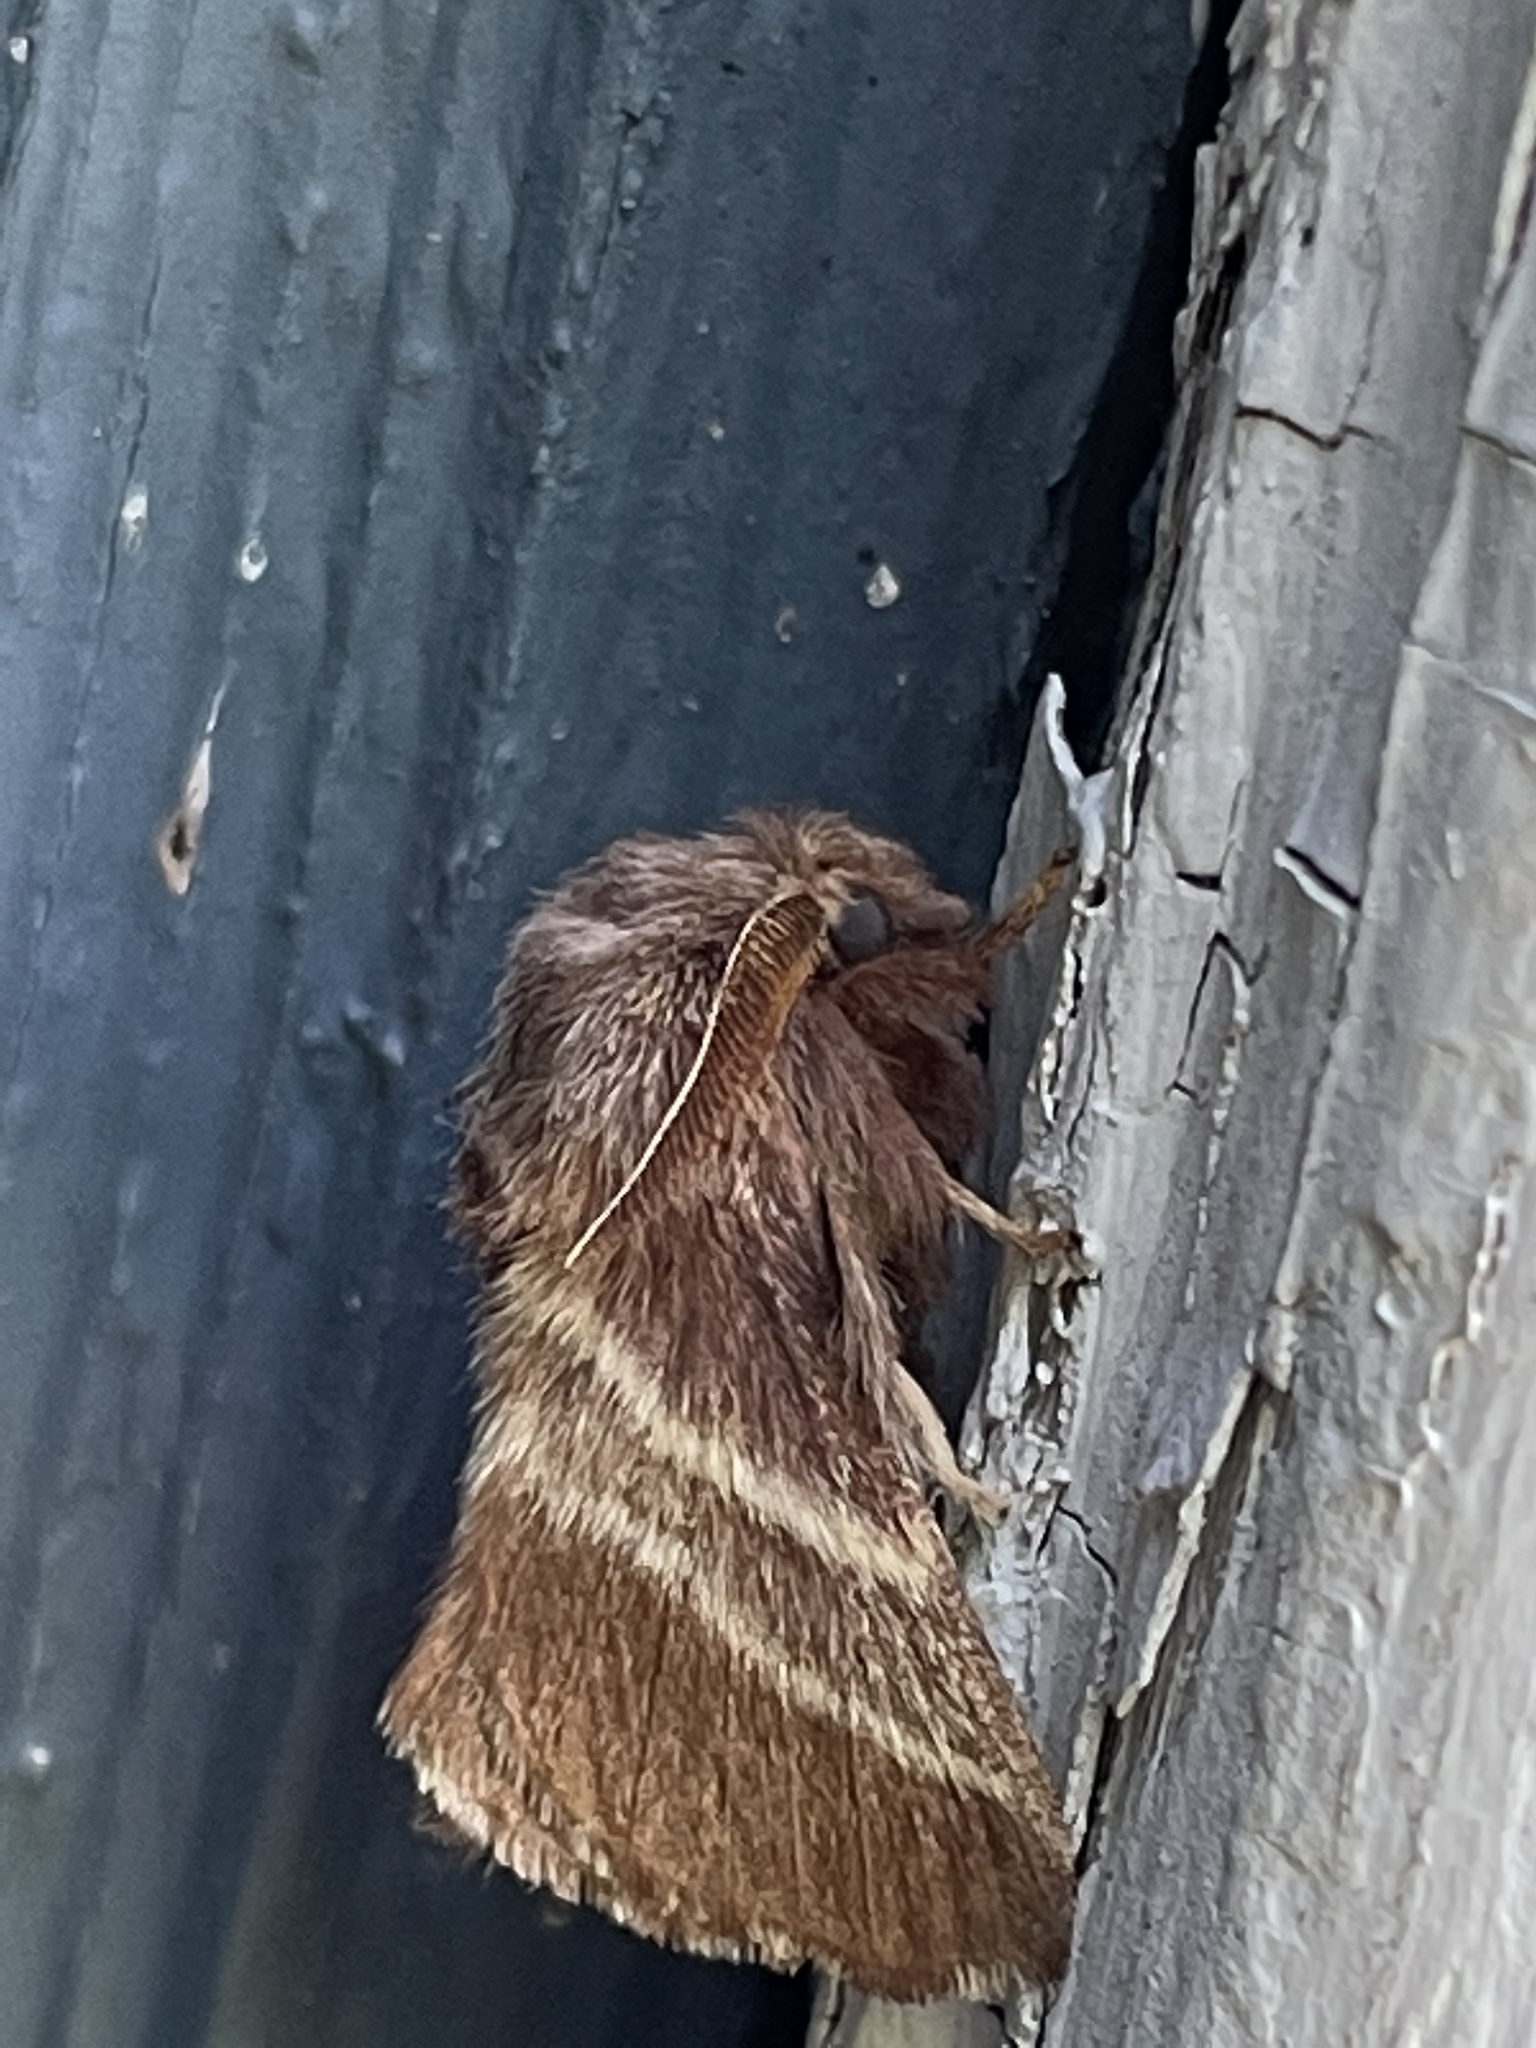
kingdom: Animalia
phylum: Arthropoda
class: Insecta
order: Lepidoptera
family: Lasiocampidae
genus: Malacosoma
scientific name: Malacosoma americana
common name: Eastern tent caterpillar moth
